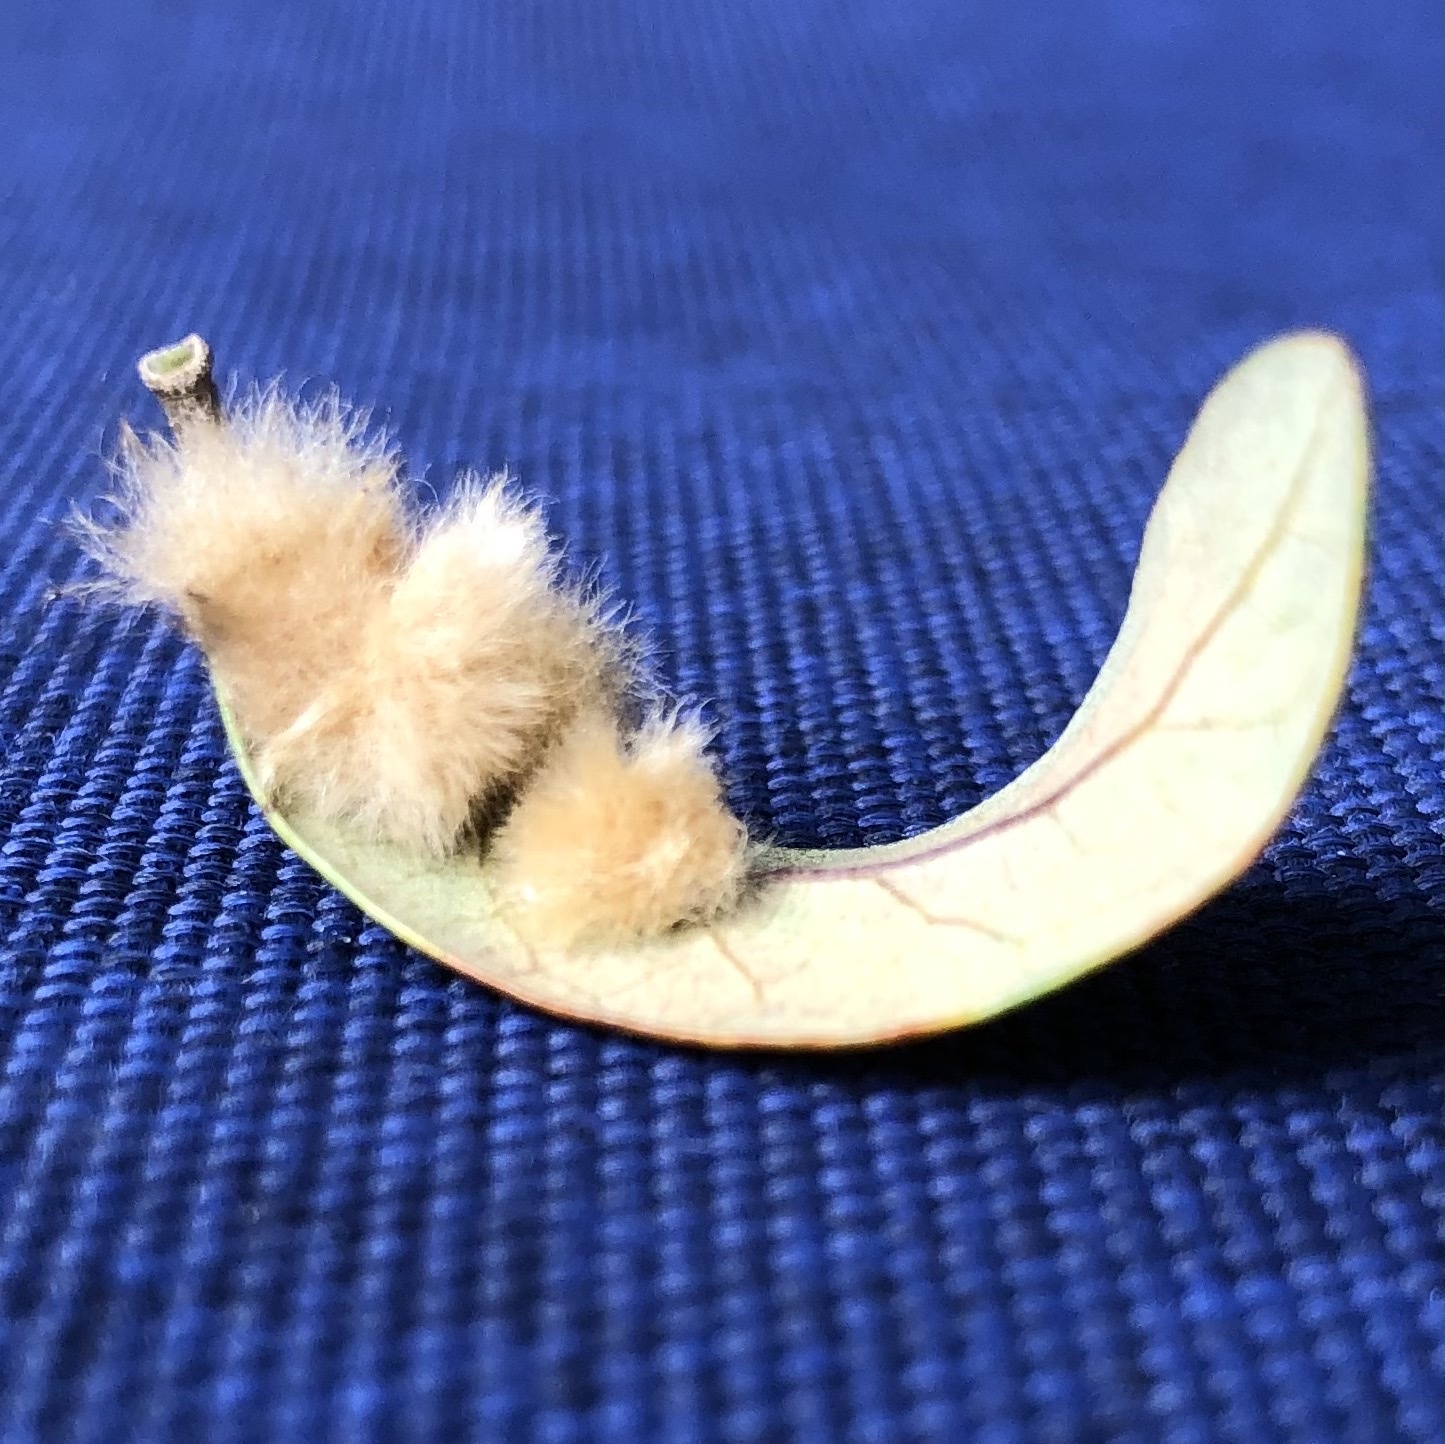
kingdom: Animalia
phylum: Arthropoda
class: Insecta
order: Hymenoptera
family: Cynipidae
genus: Andricus
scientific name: Andricus Druon quercuslanigerum
